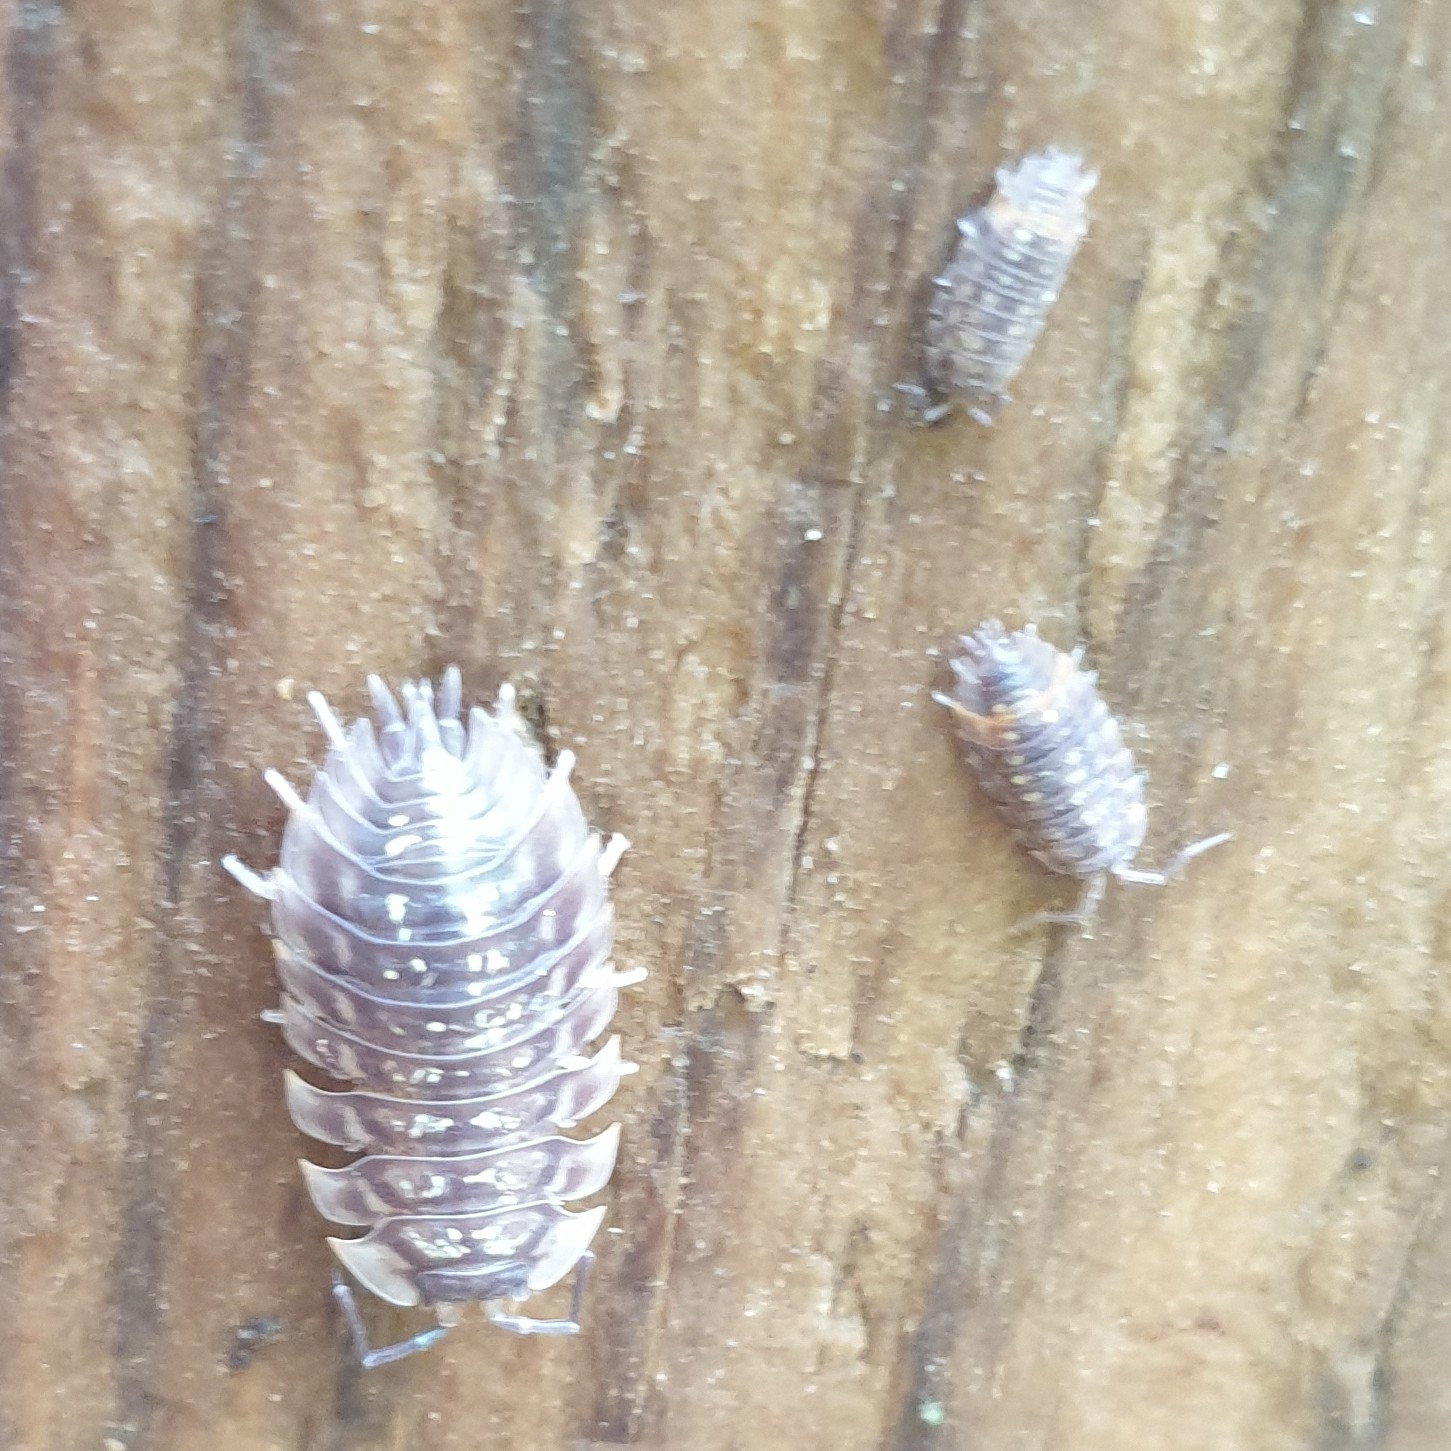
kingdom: Animalia
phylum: Arthropoda
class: Malacostraca
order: Isopoda
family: Oniscidae
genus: Oniscus
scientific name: Oniscus asellus
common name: Common shiny woodlouse
